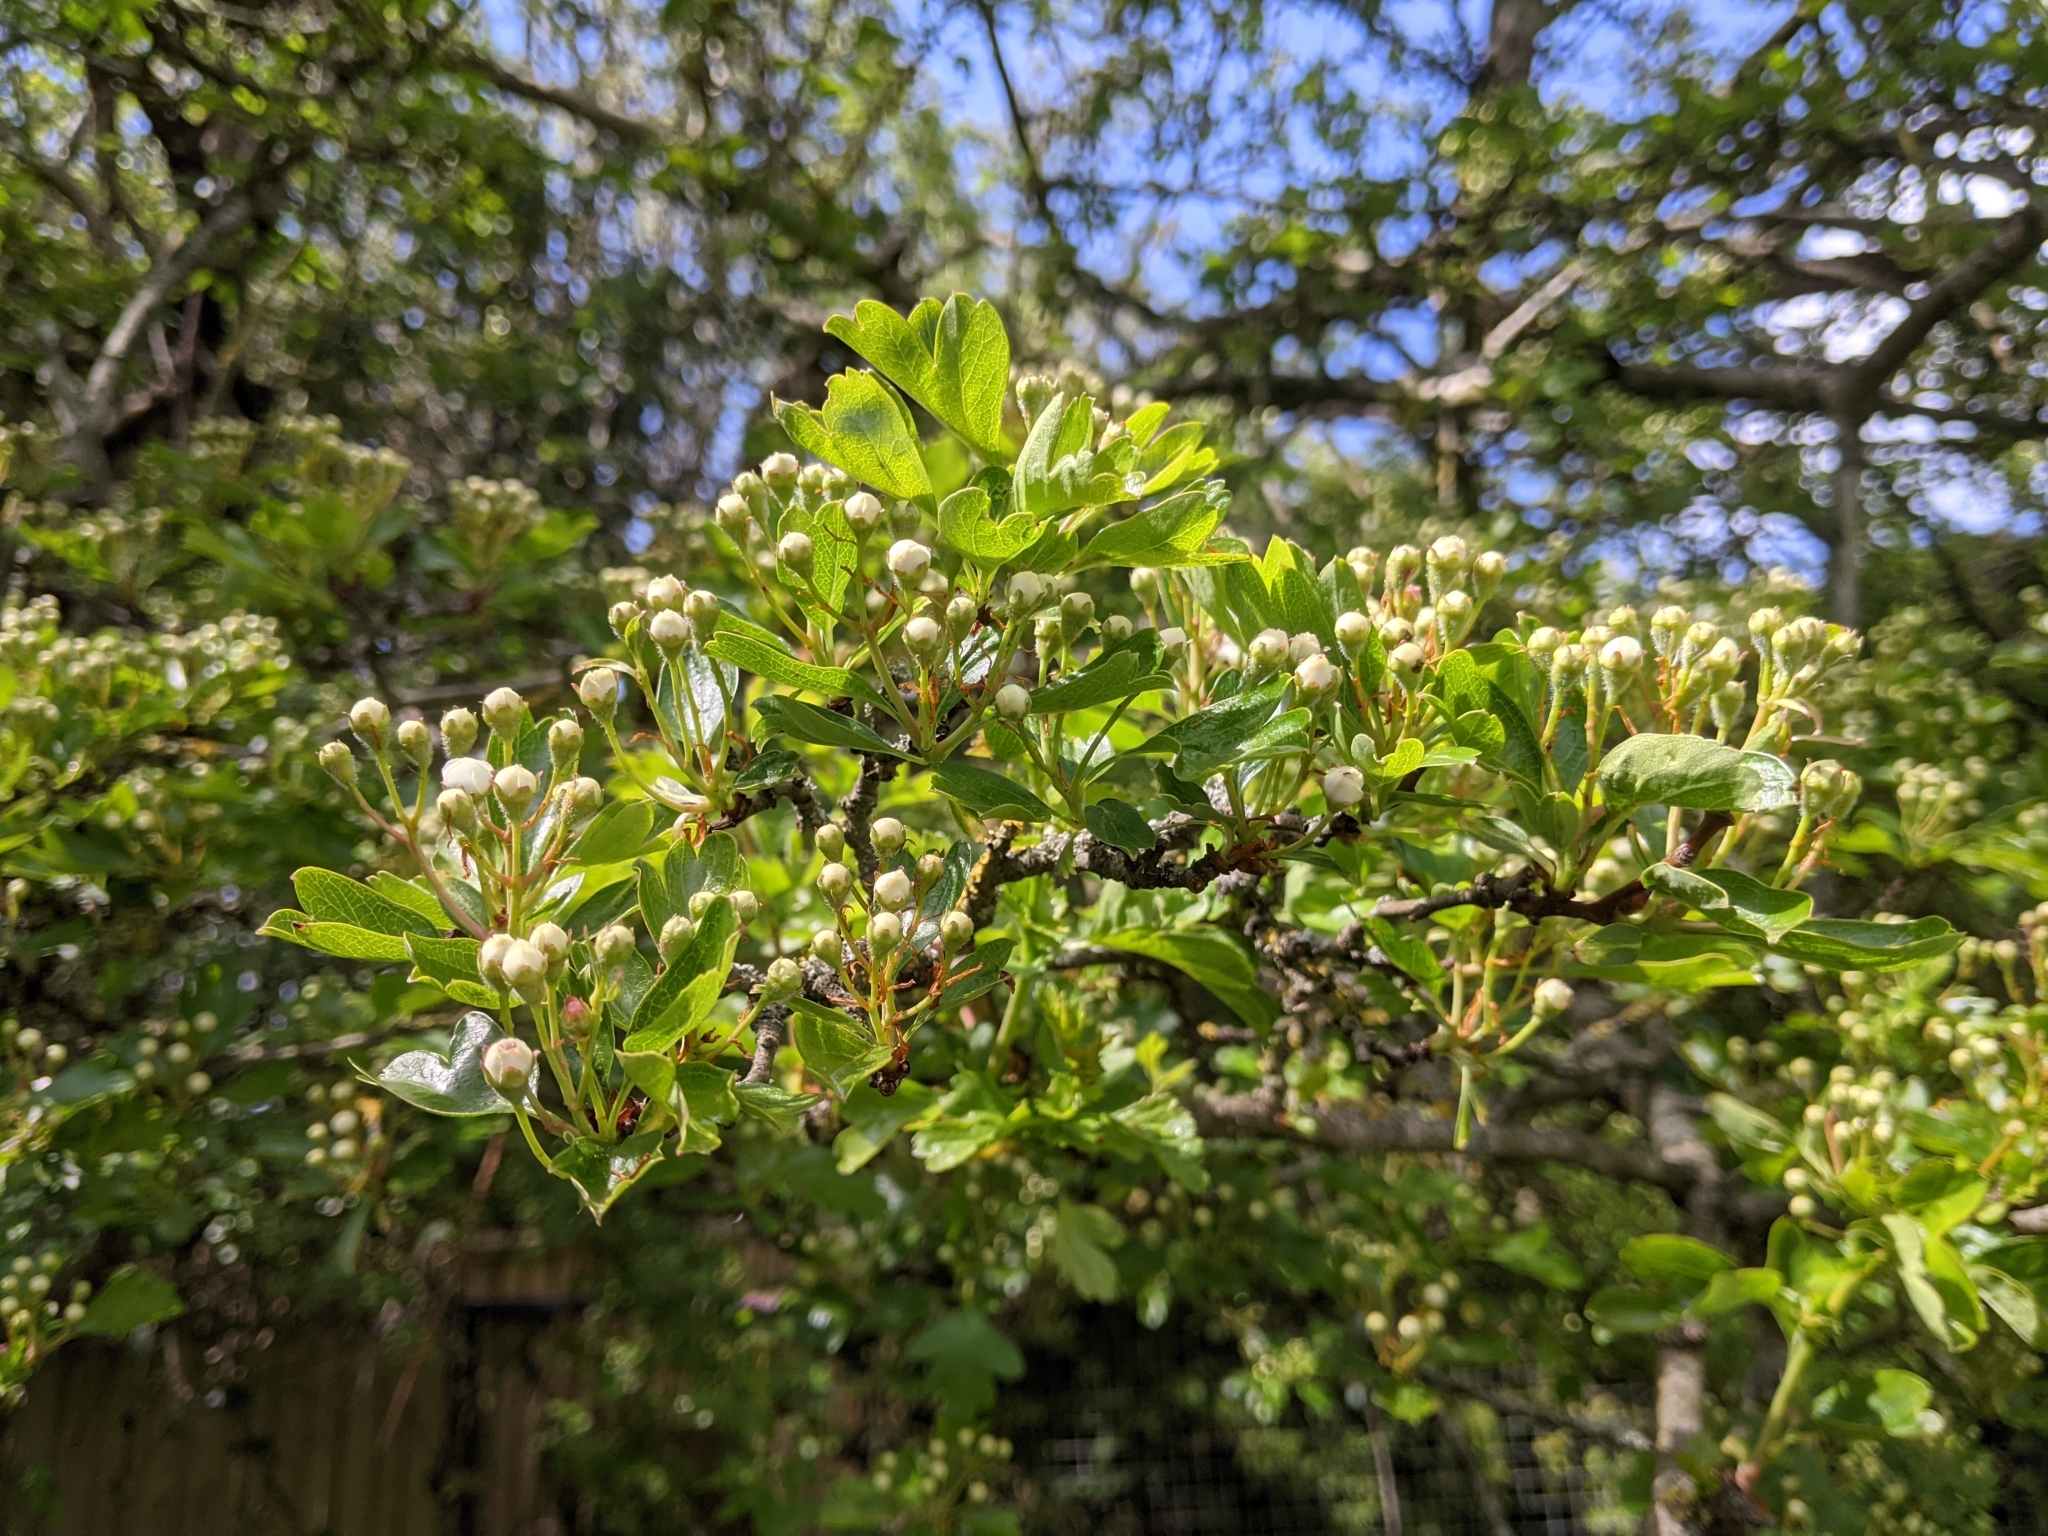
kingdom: Plantae
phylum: Tracheophyta
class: Magnoliopsida
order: Rosales
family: Rosaceae
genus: Crataegus
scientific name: Crataegus monogyna
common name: Hawthorn
